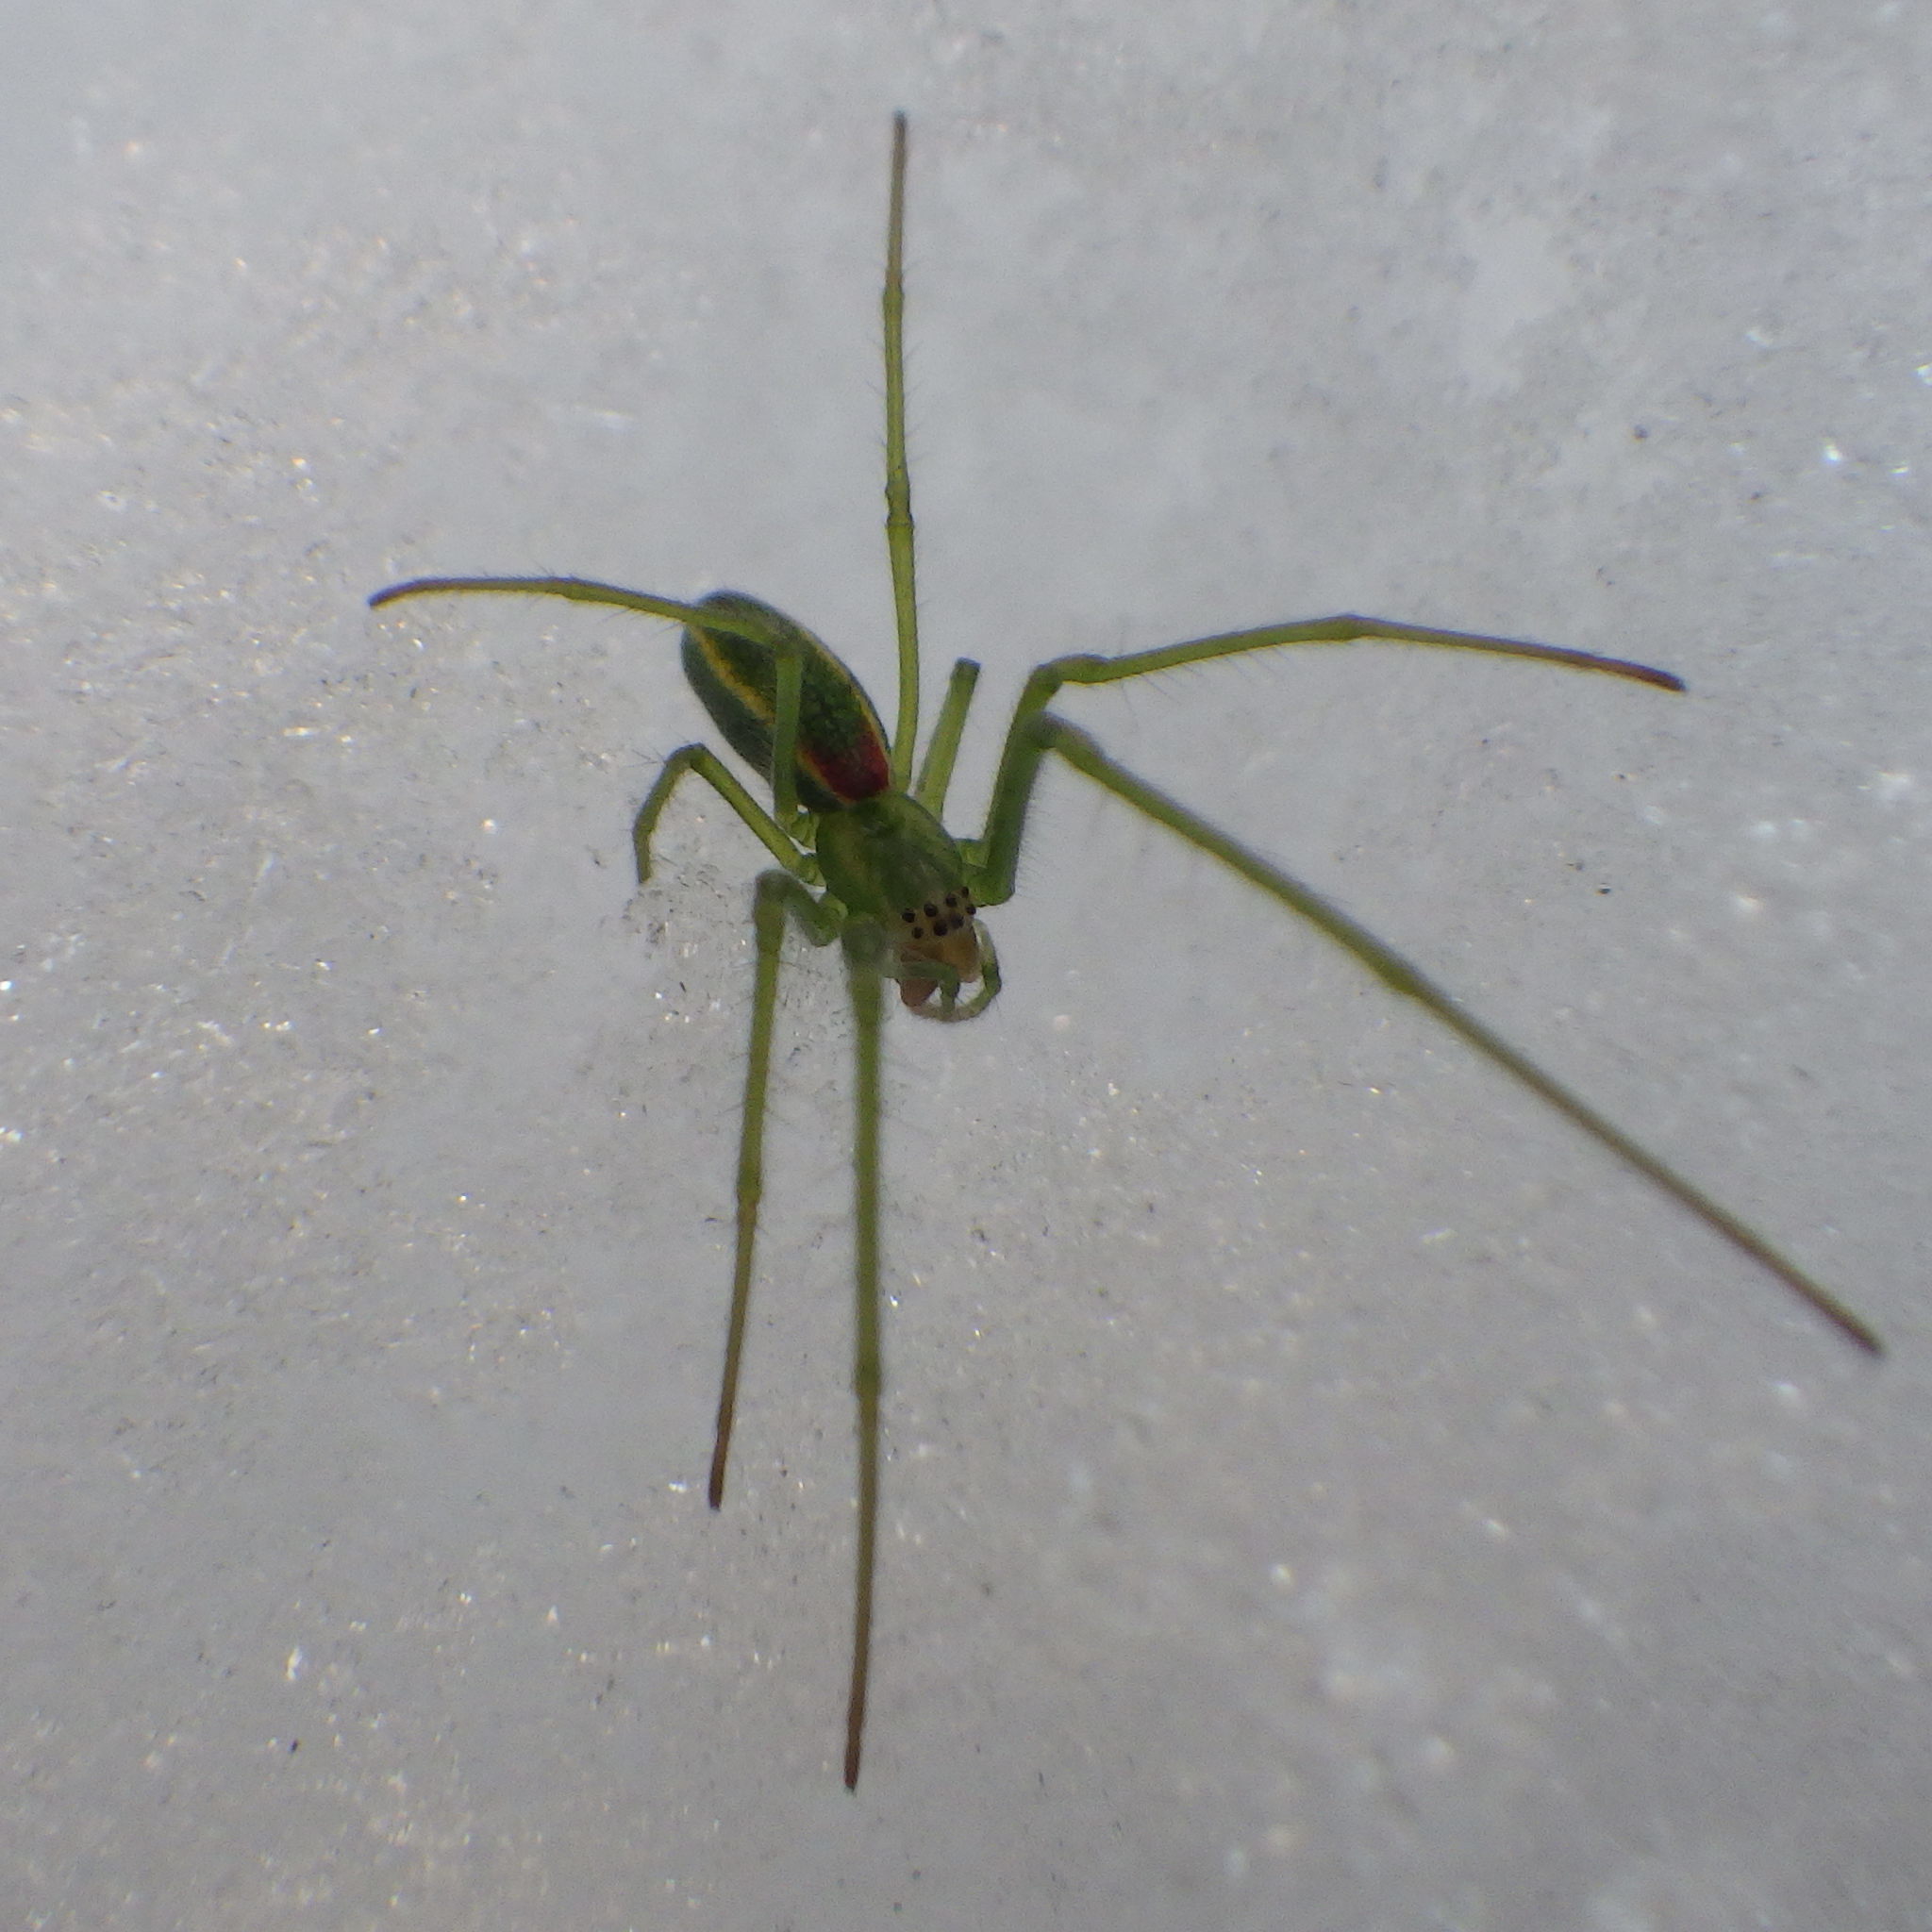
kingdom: Animalia
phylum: Arthropoda
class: Arachnida
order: Araneae
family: Tetragnathidae
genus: Tetragnatha
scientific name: Tetragnatha viridis
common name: Green long-jawed spider
